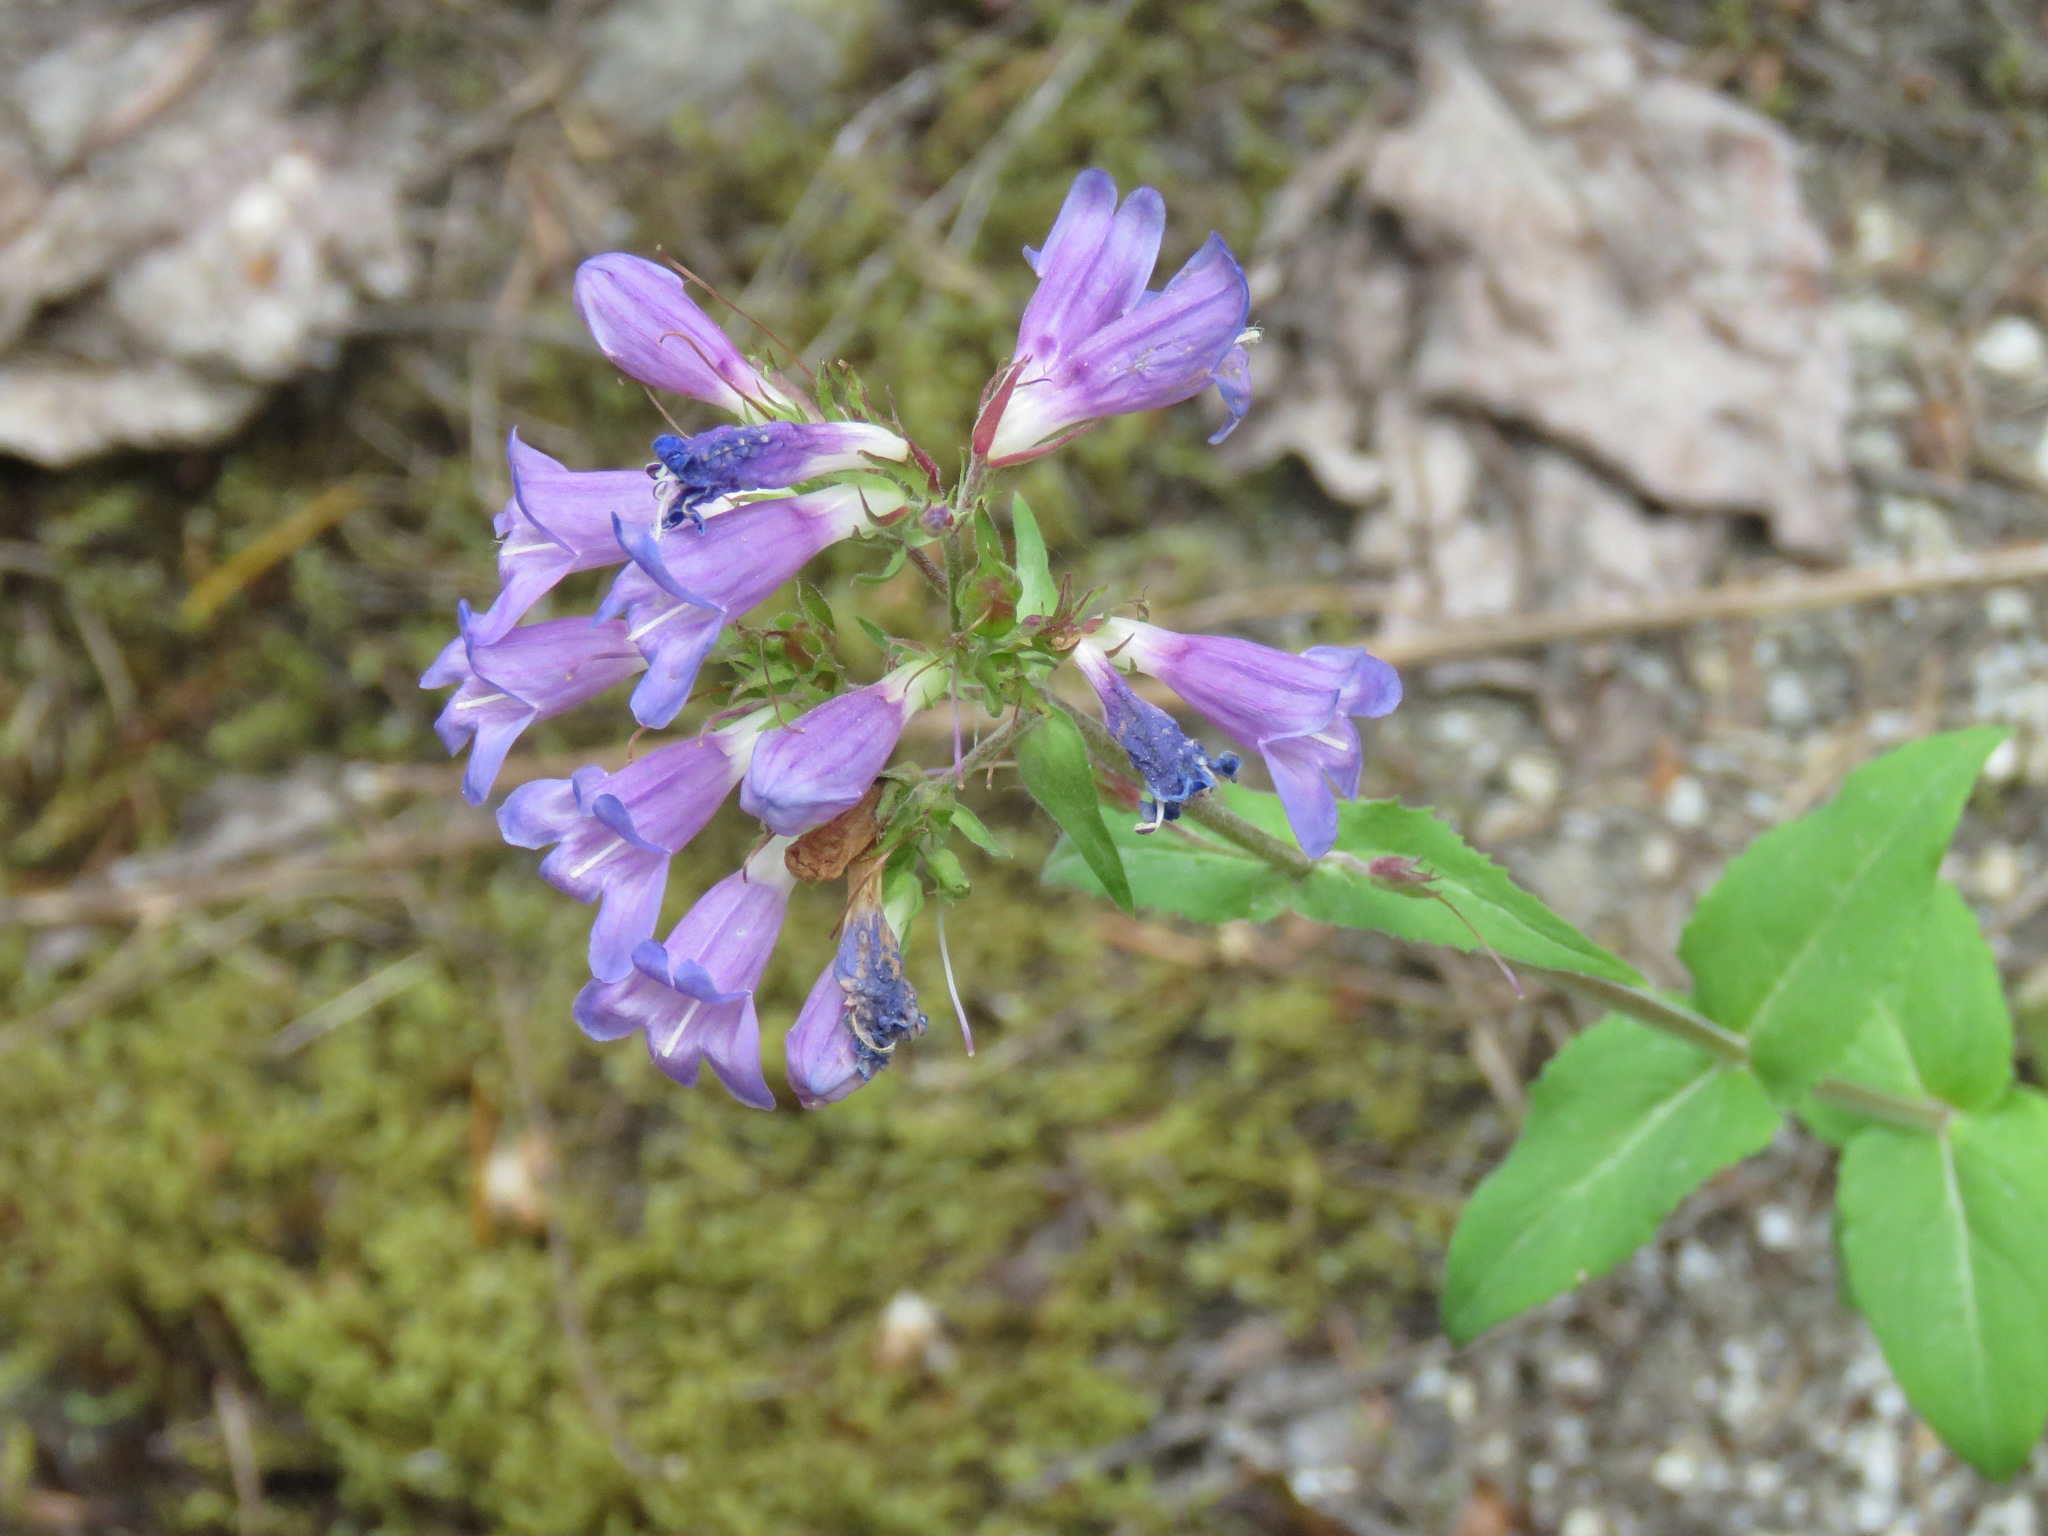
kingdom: Plantae
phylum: Tracheophyta
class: Magnoliopsida
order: Lamiales
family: Plantaginaceae
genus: Penstemon
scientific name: Penstemon serrulatus
